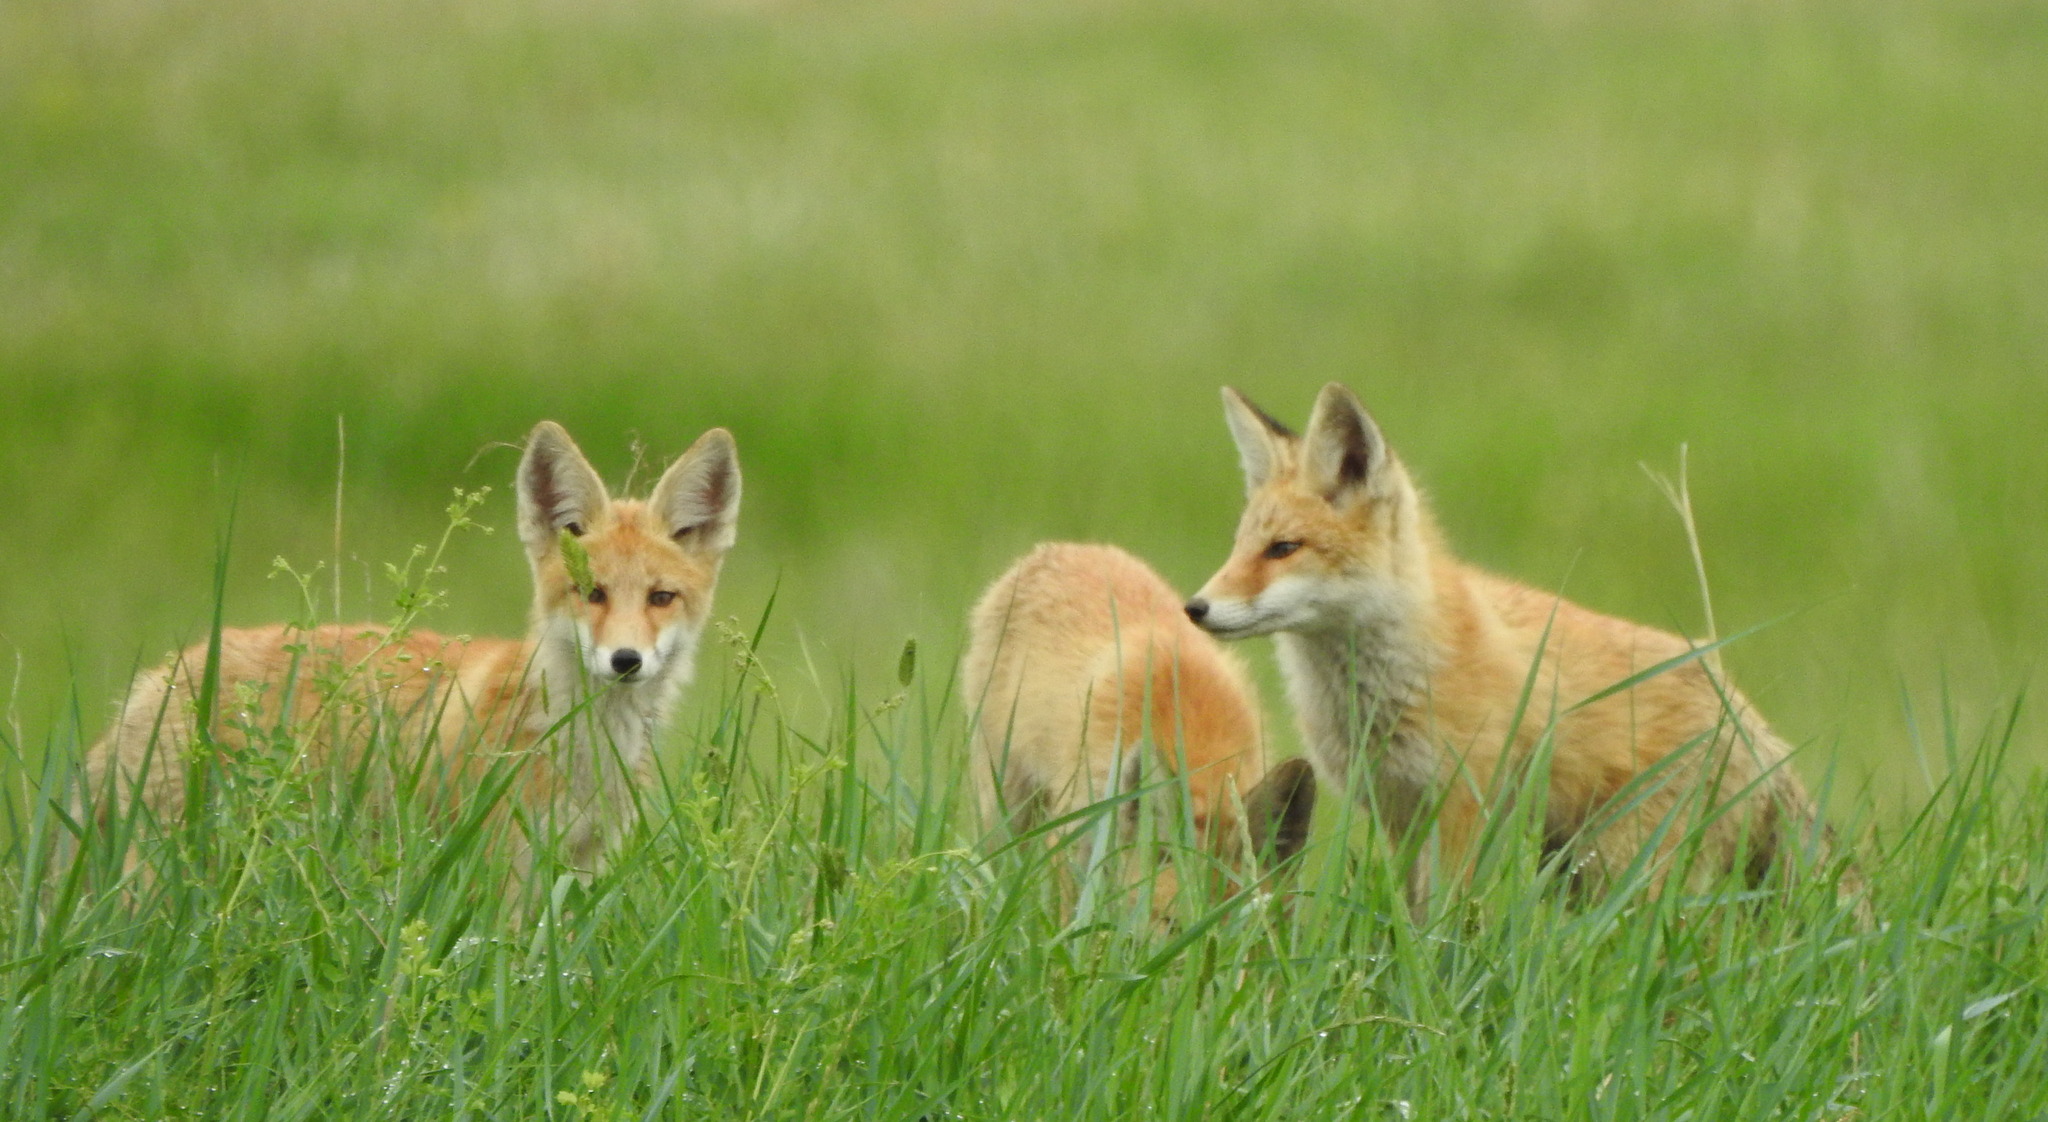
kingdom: Animalia
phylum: Chordata
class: Mammalia
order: Carnivora
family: Canidae
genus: Vulpes
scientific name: Vulpes vulpes
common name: Red fox
